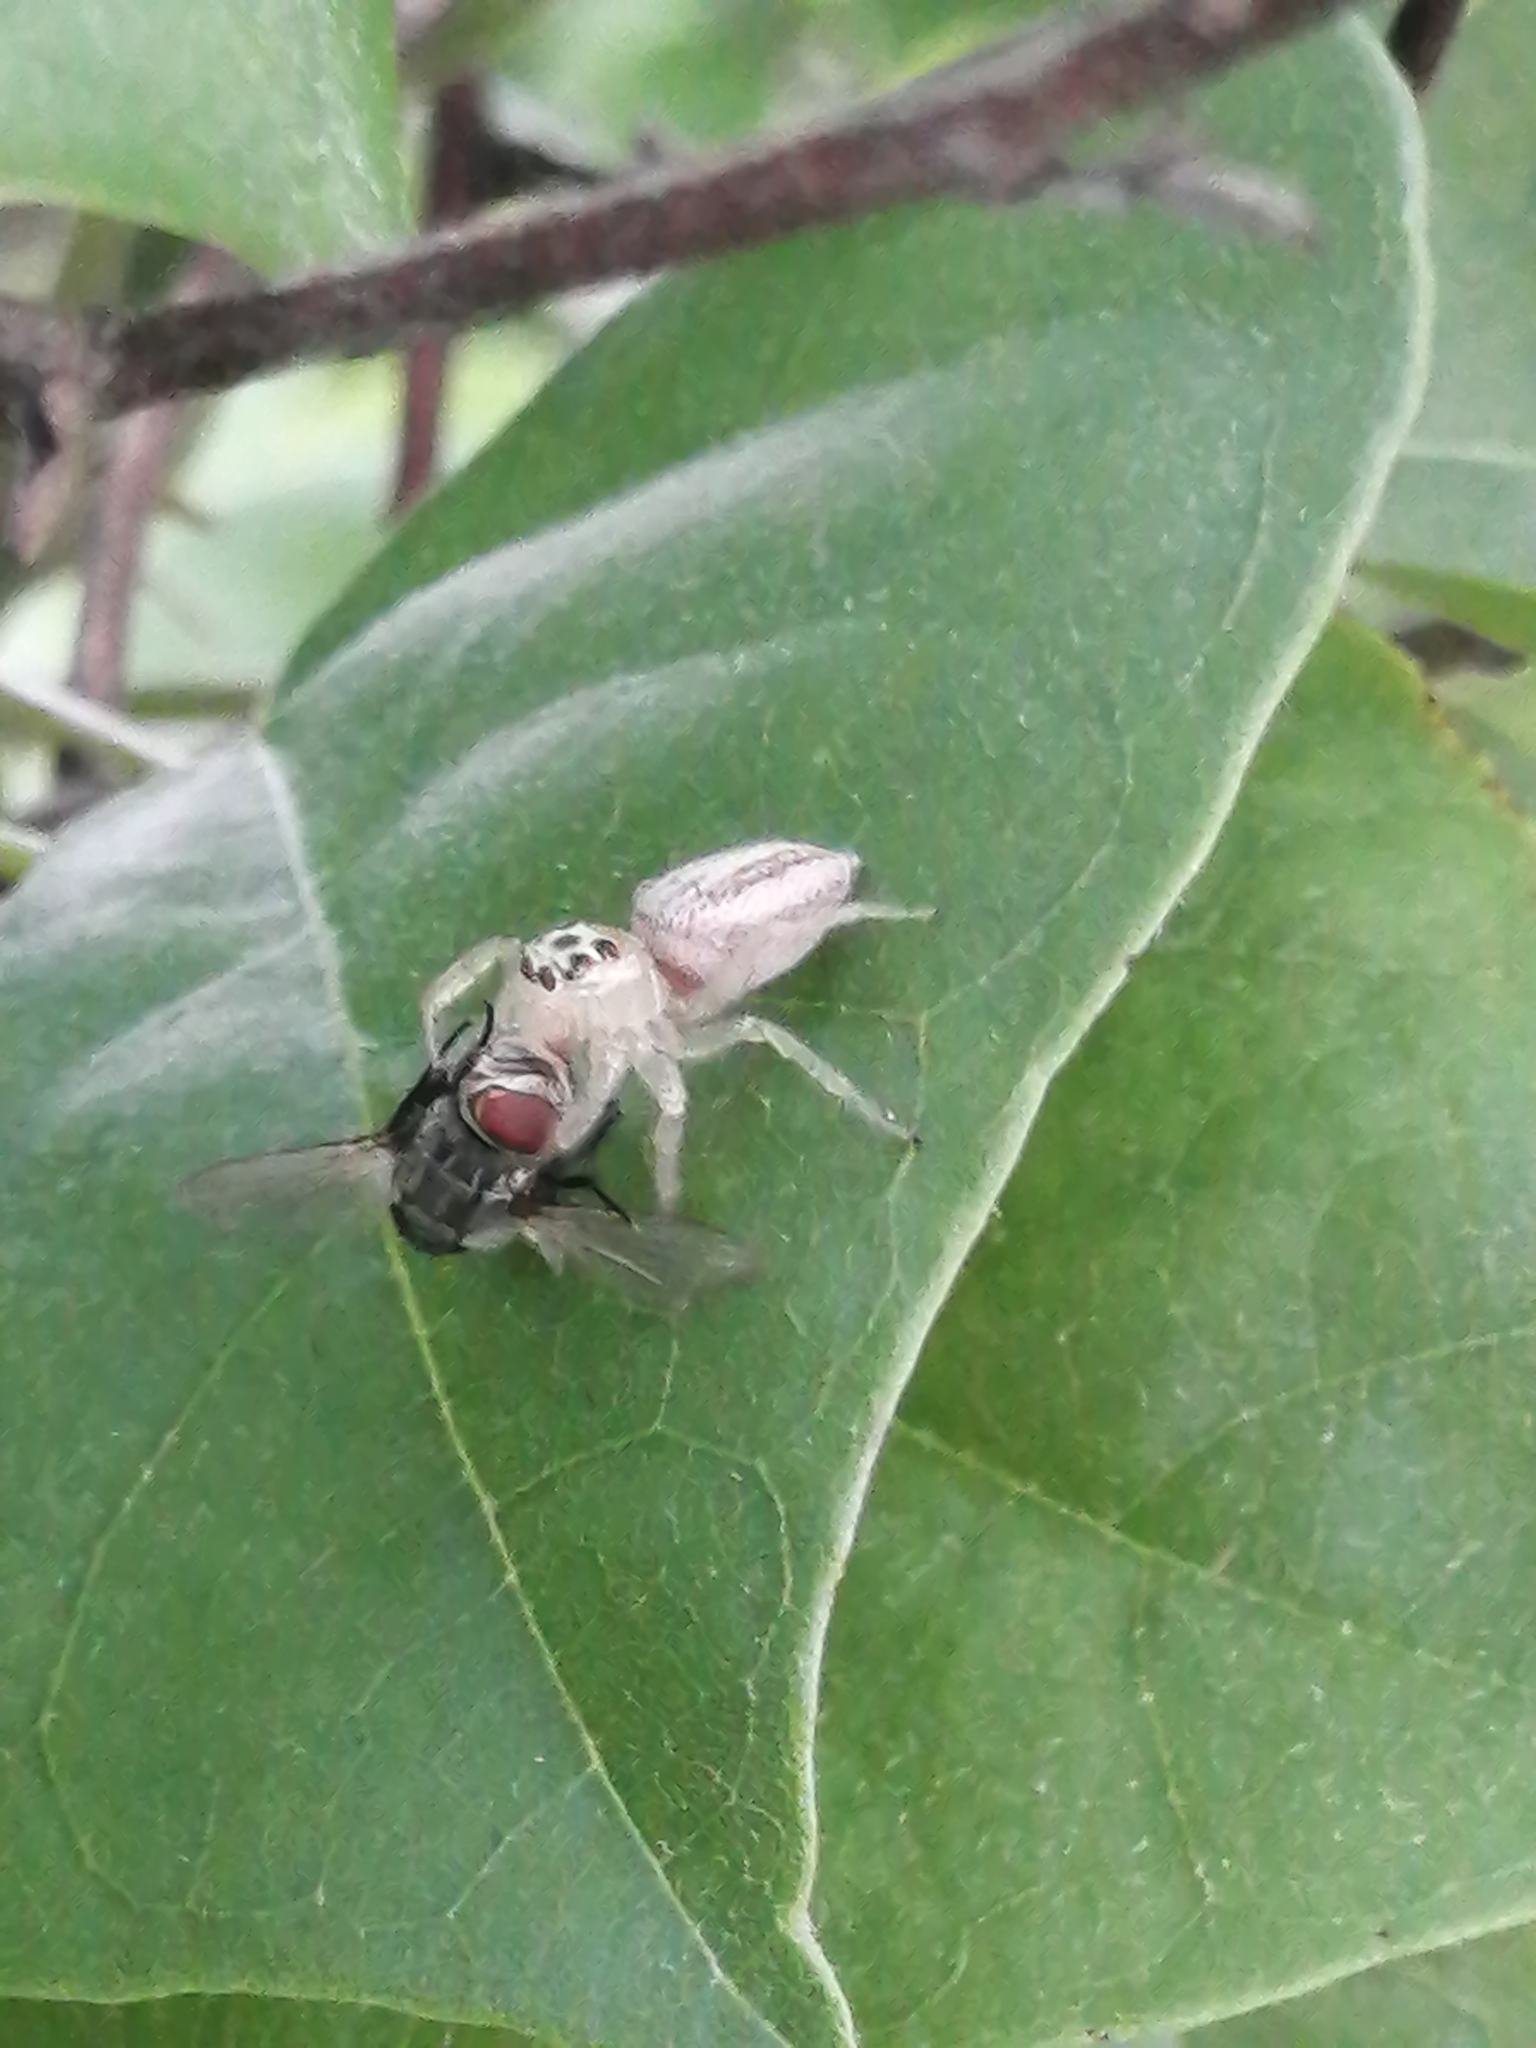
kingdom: Animalia
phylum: Arthropoda
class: Arachnida
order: Araneae
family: Salticidae
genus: Colonus
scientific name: Colonus sylvanus
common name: Jumping spiders
